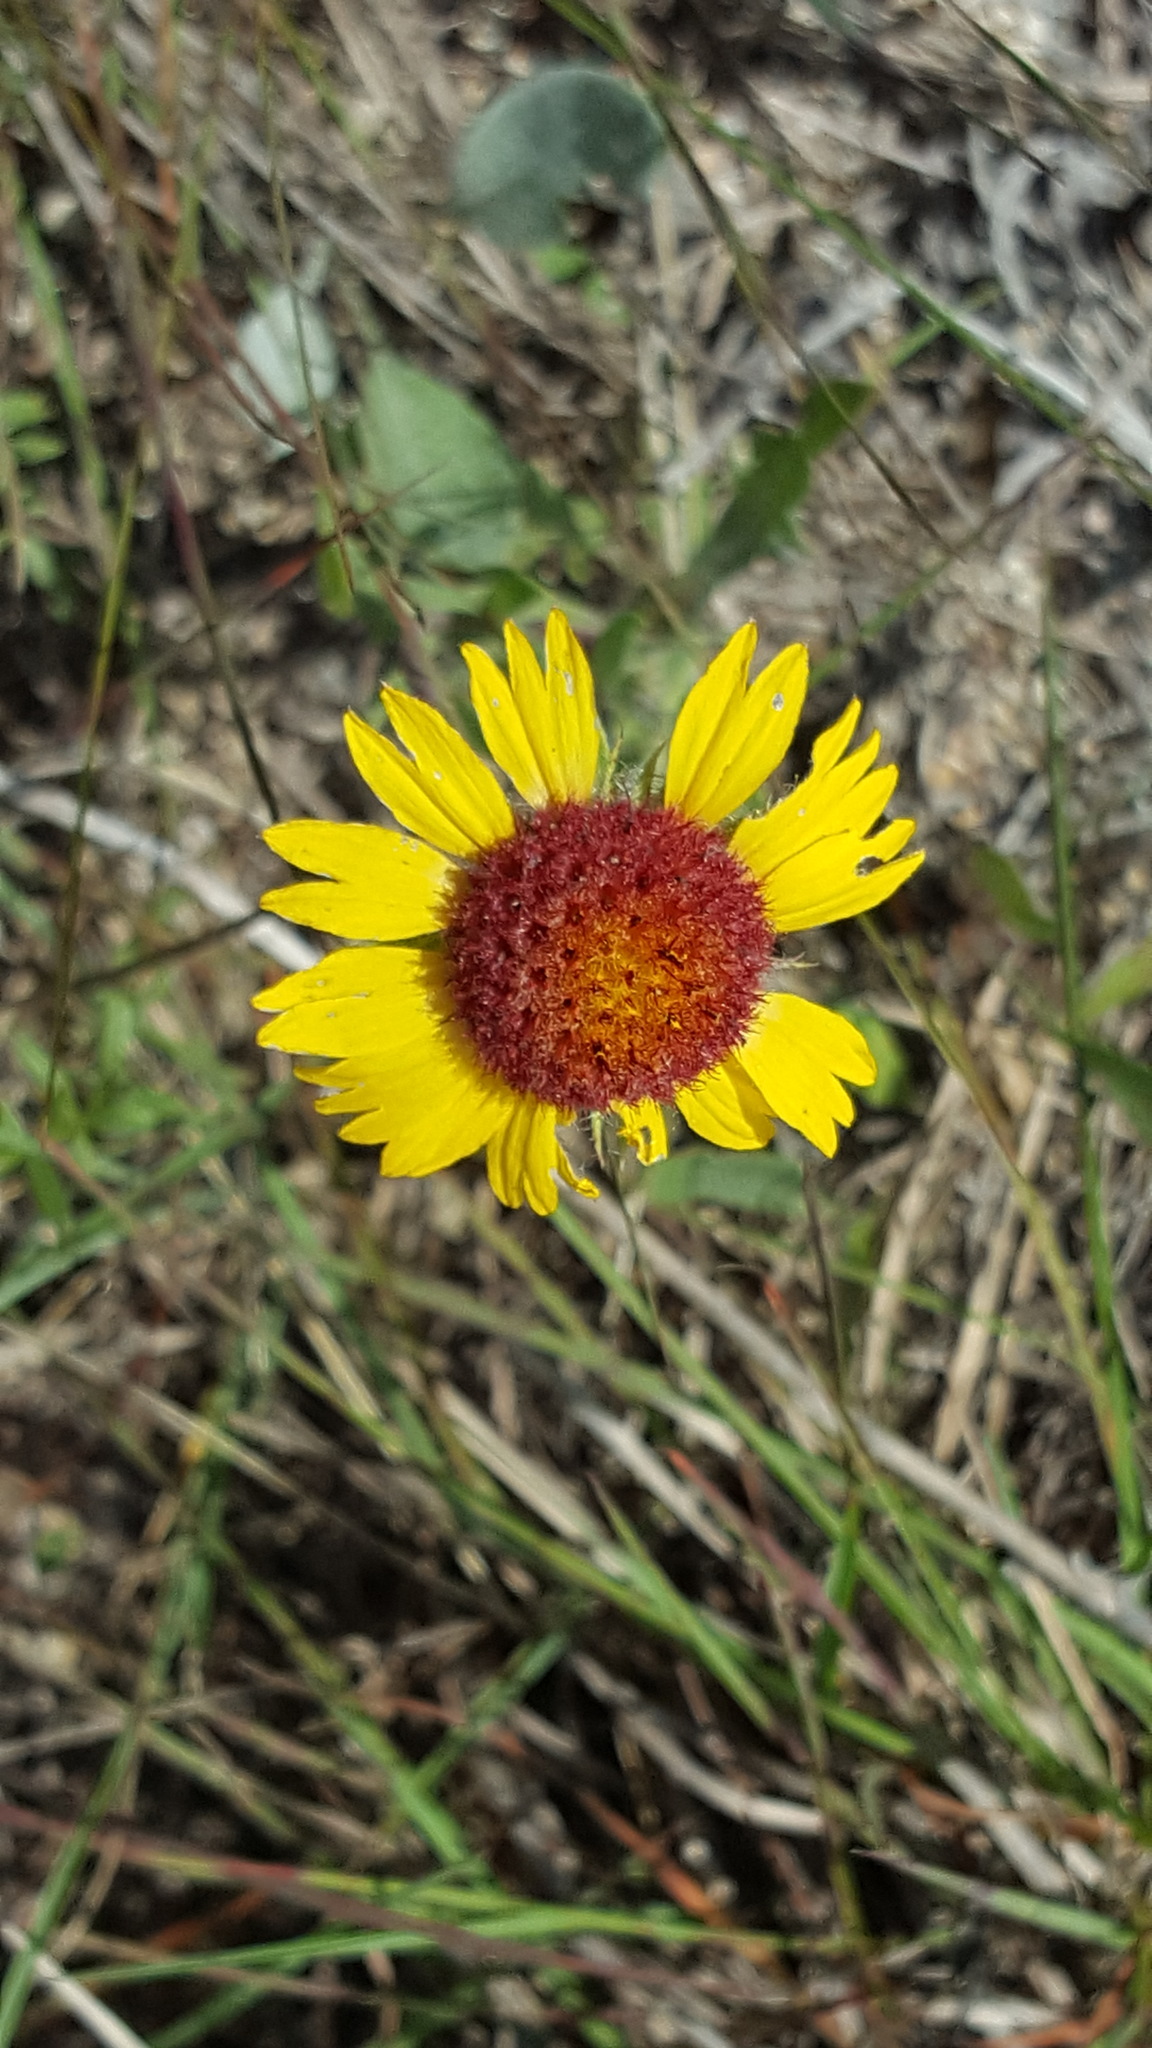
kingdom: Plantae
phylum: Tracheophyta
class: Magnoliopsida
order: Asterales
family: Asteraceae
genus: Gaillardia
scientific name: Gaillardia aristata
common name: Blanket-flower
